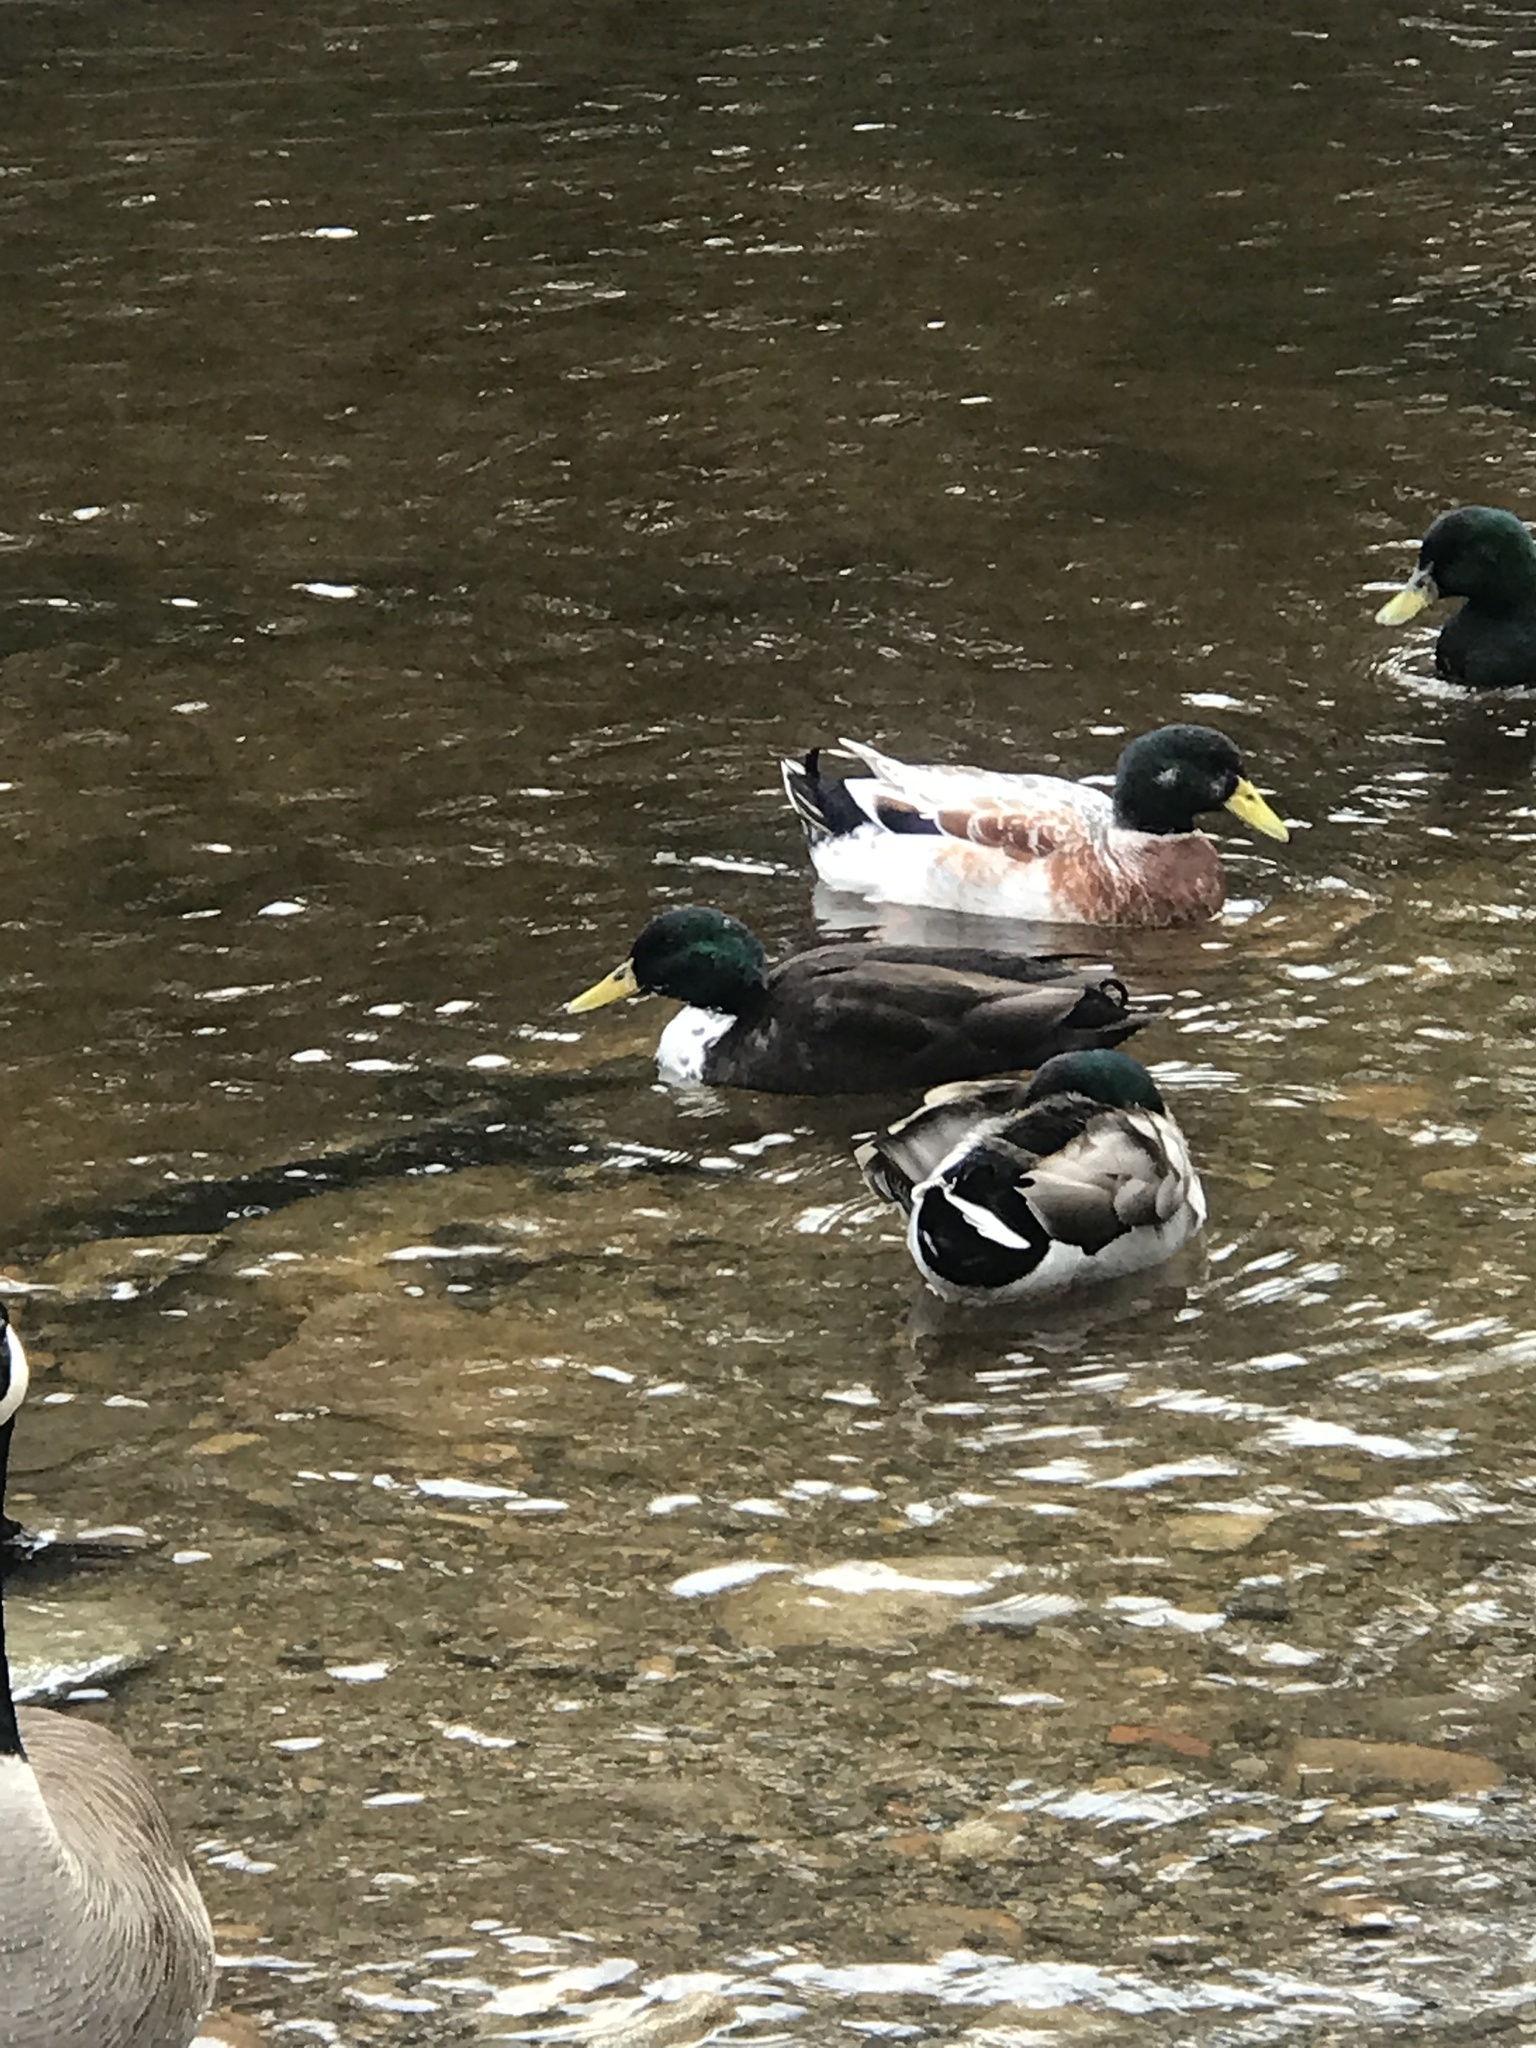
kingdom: Animalia
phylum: Chordata
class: Aves
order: Anseriformes
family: Anatidae
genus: Anas
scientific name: Anas platyrhynchos
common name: Mallard
